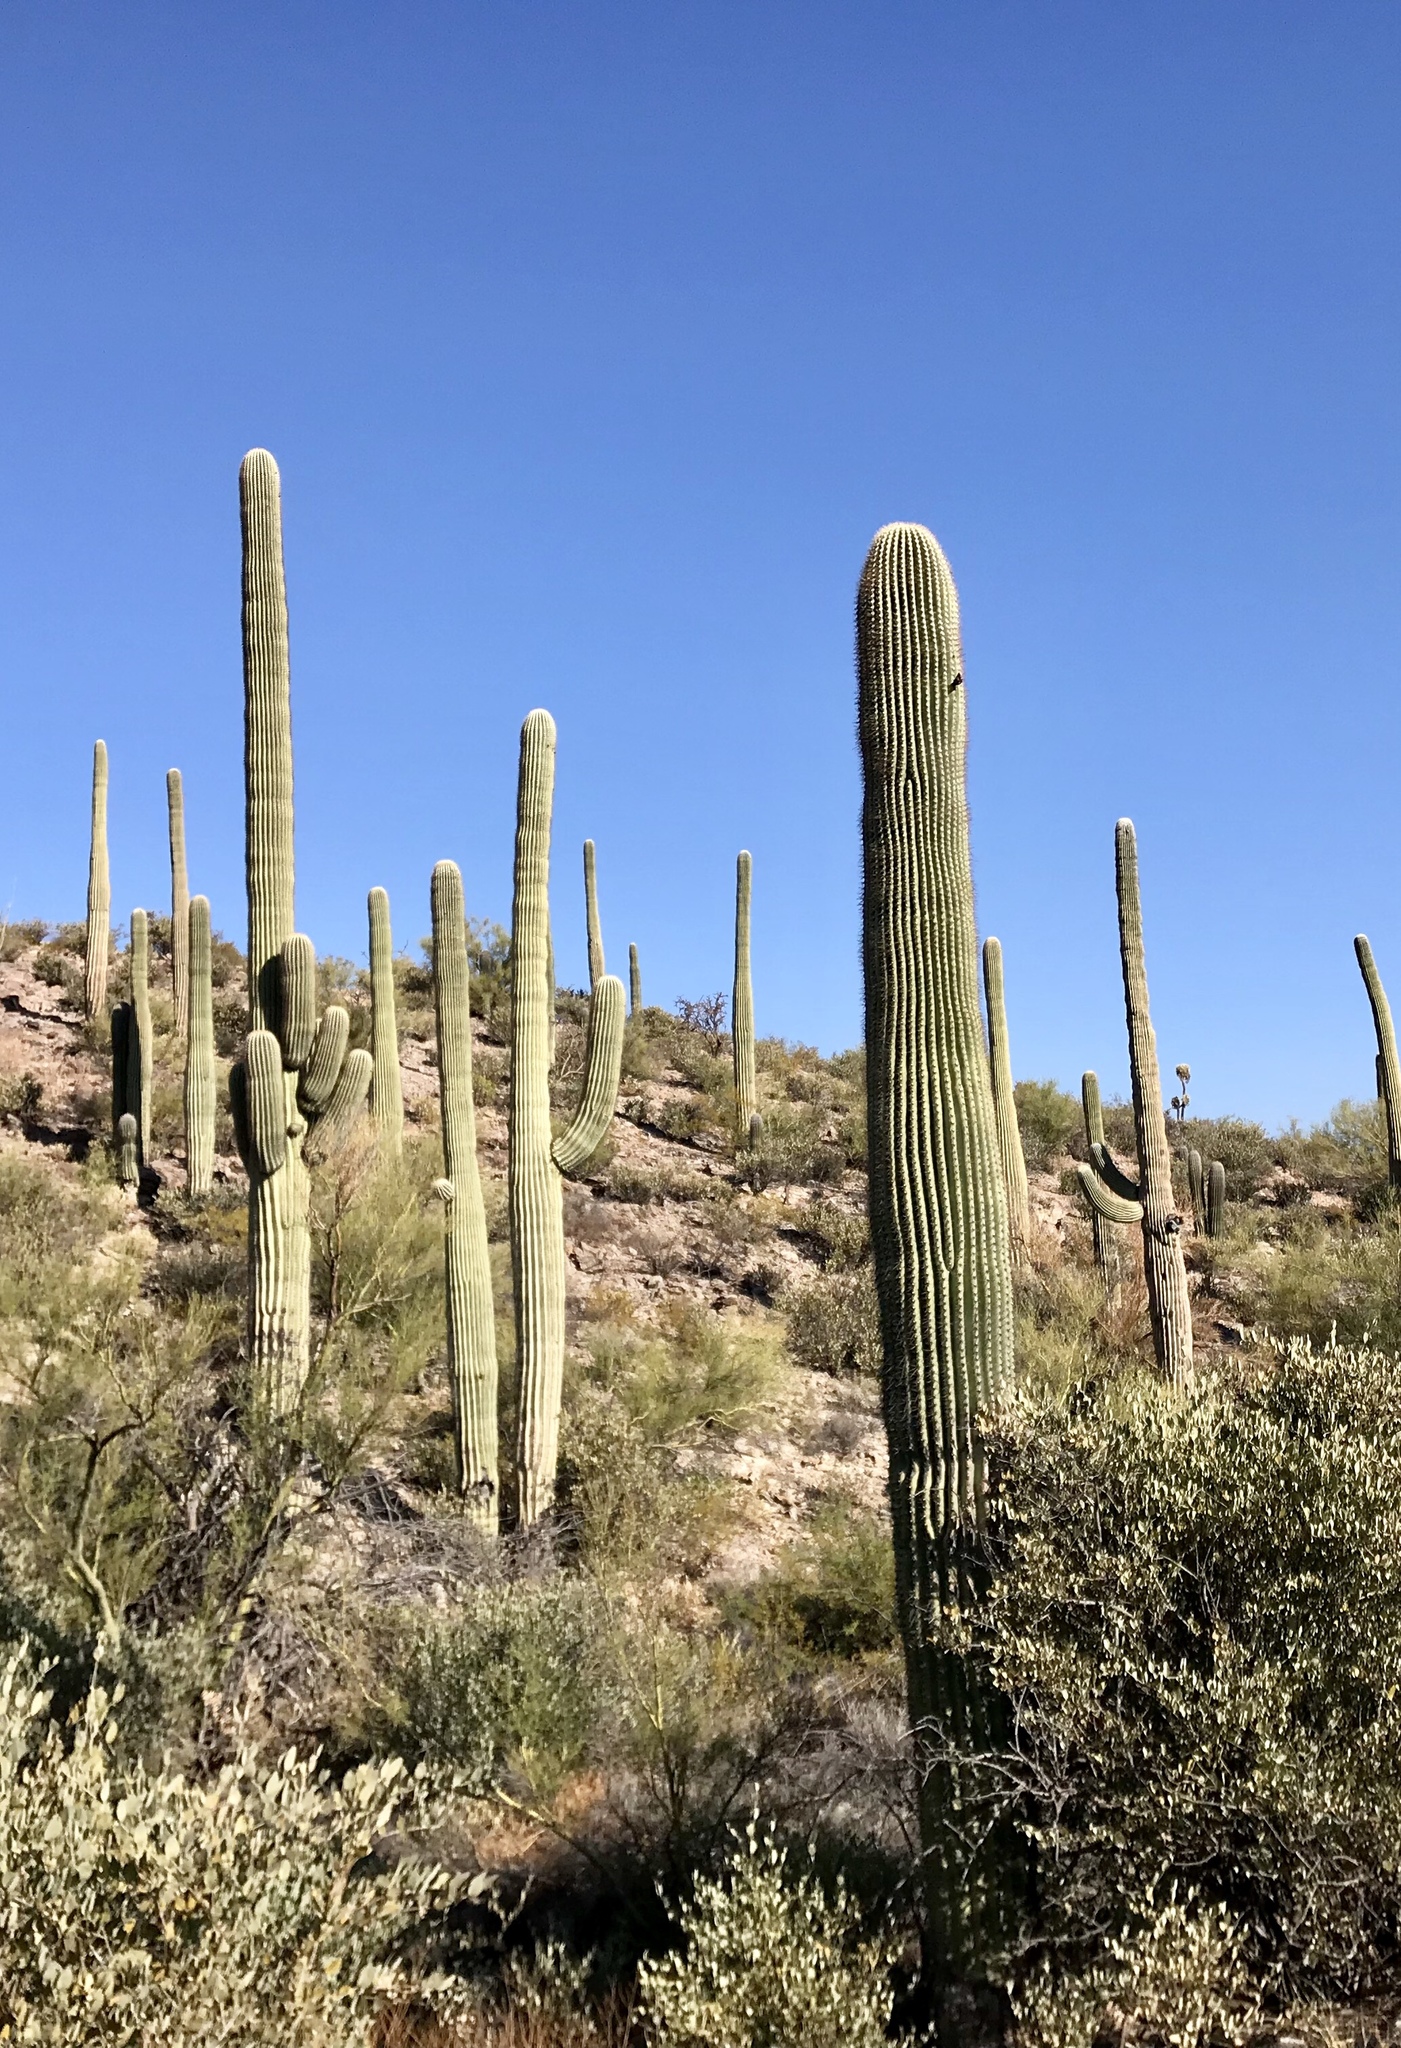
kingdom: Plantae
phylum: Tracheophyta
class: Magnoliopsida
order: Caryophyllales
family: Cactaceae
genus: Carnegiea
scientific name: Carnegiea gigantea
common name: Saguaro
